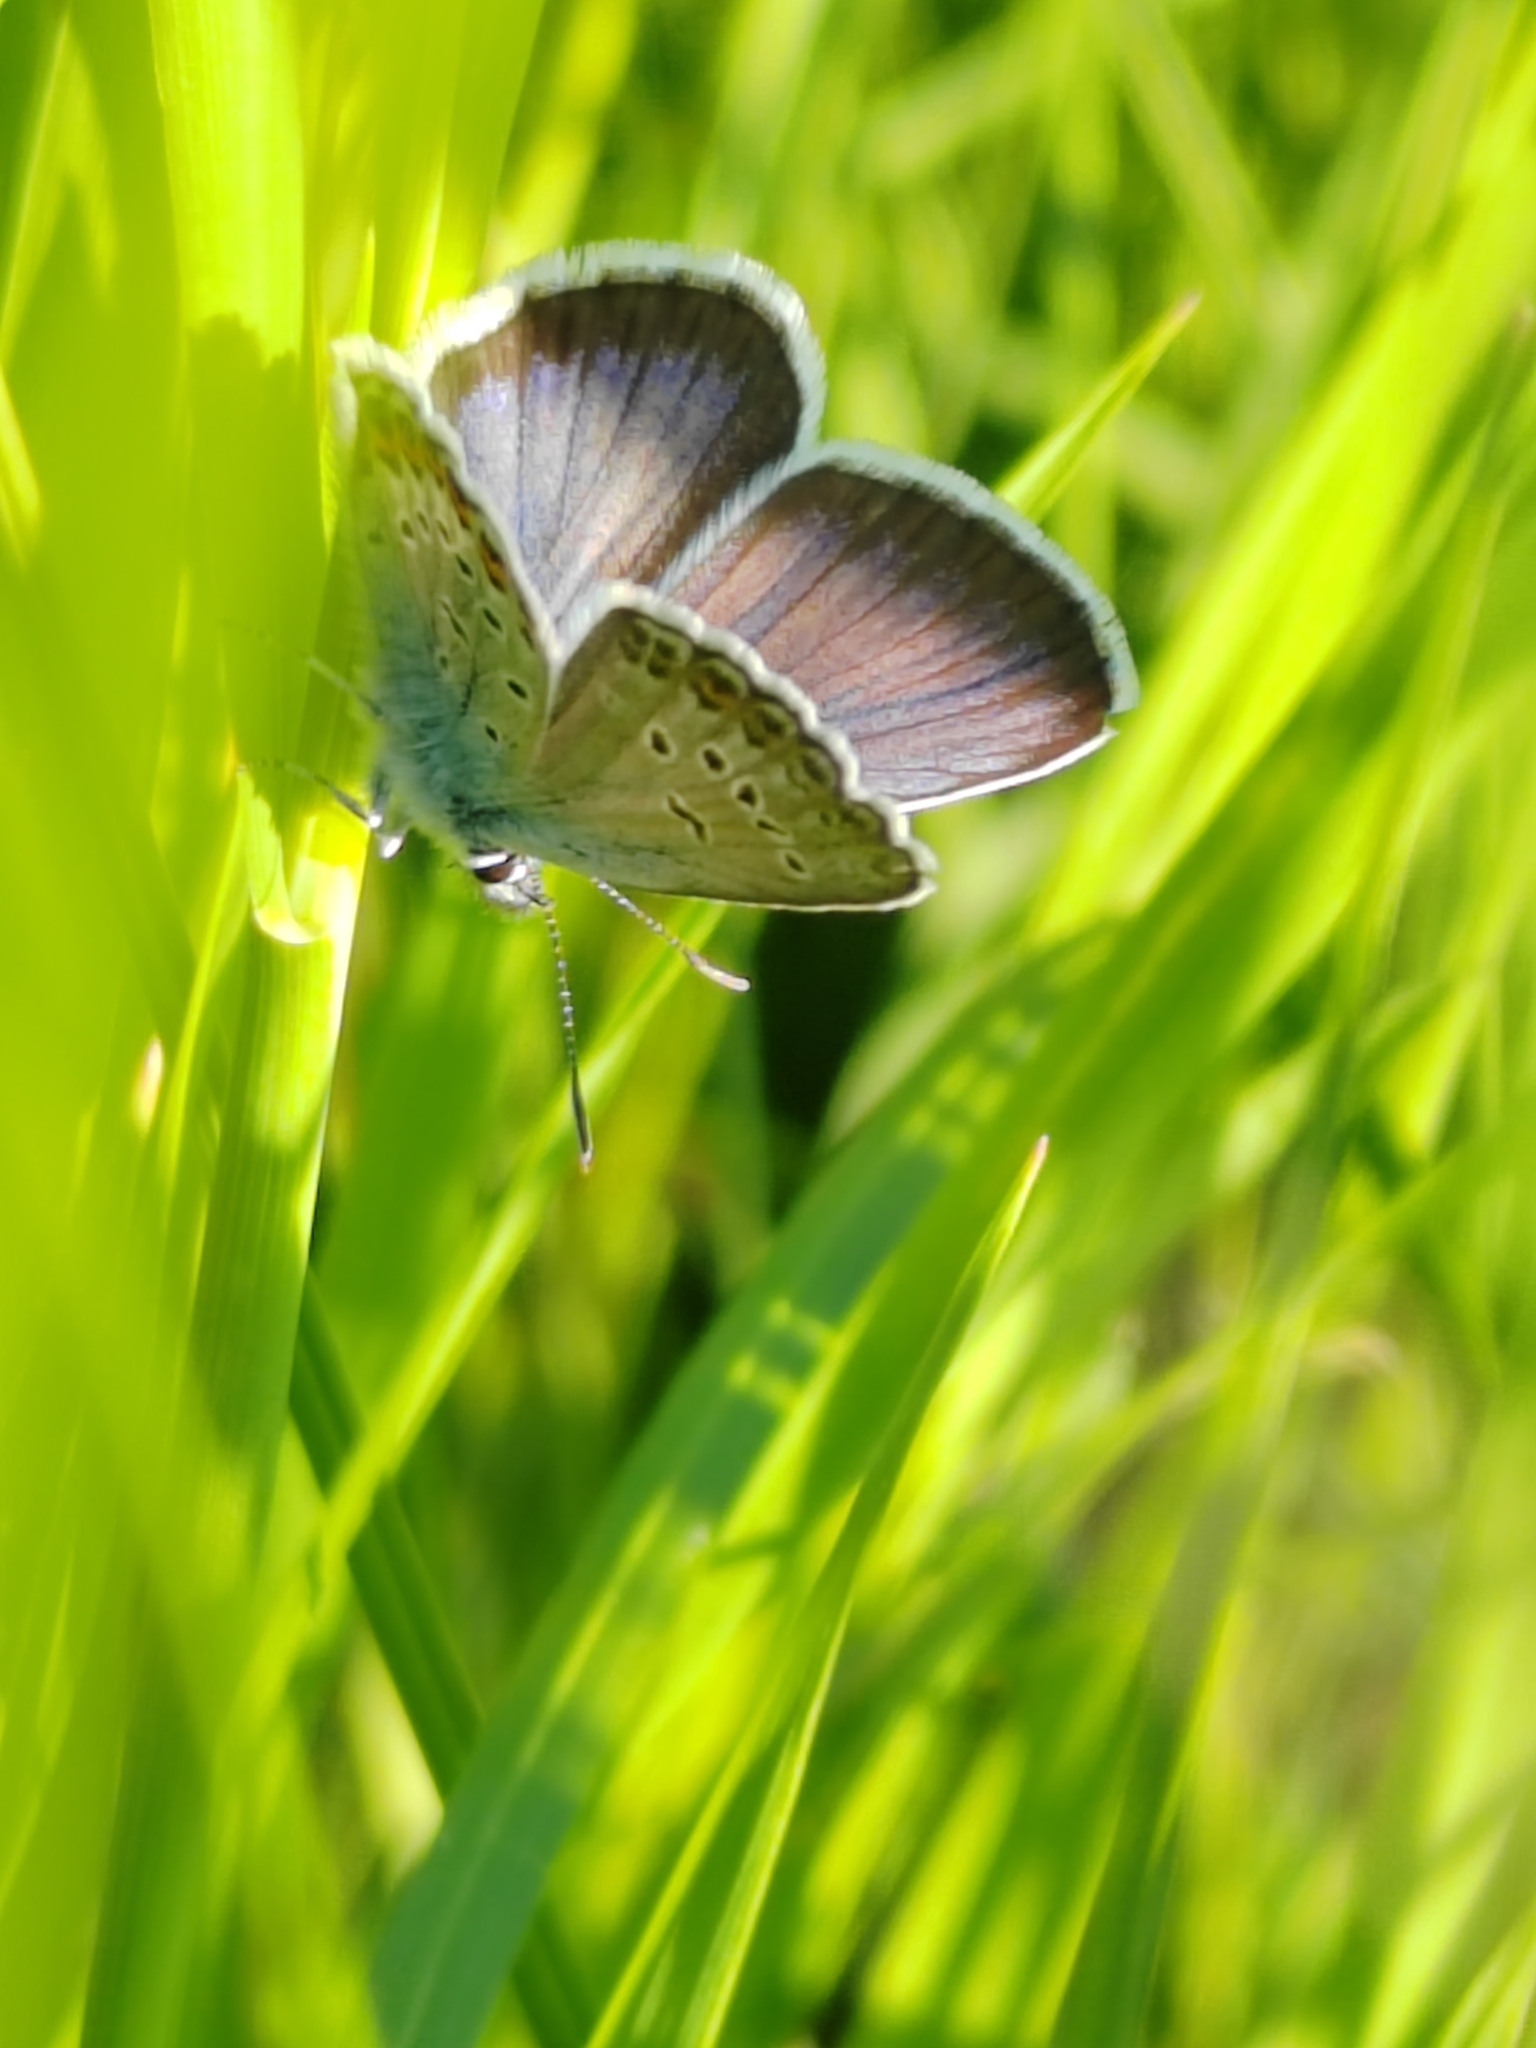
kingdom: Animalia
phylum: Arthropoda
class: Insecta
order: Lepidoptera
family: Lycaenidae
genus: Plebejus
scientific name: Plebejus argus
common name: Silver-studded blue
